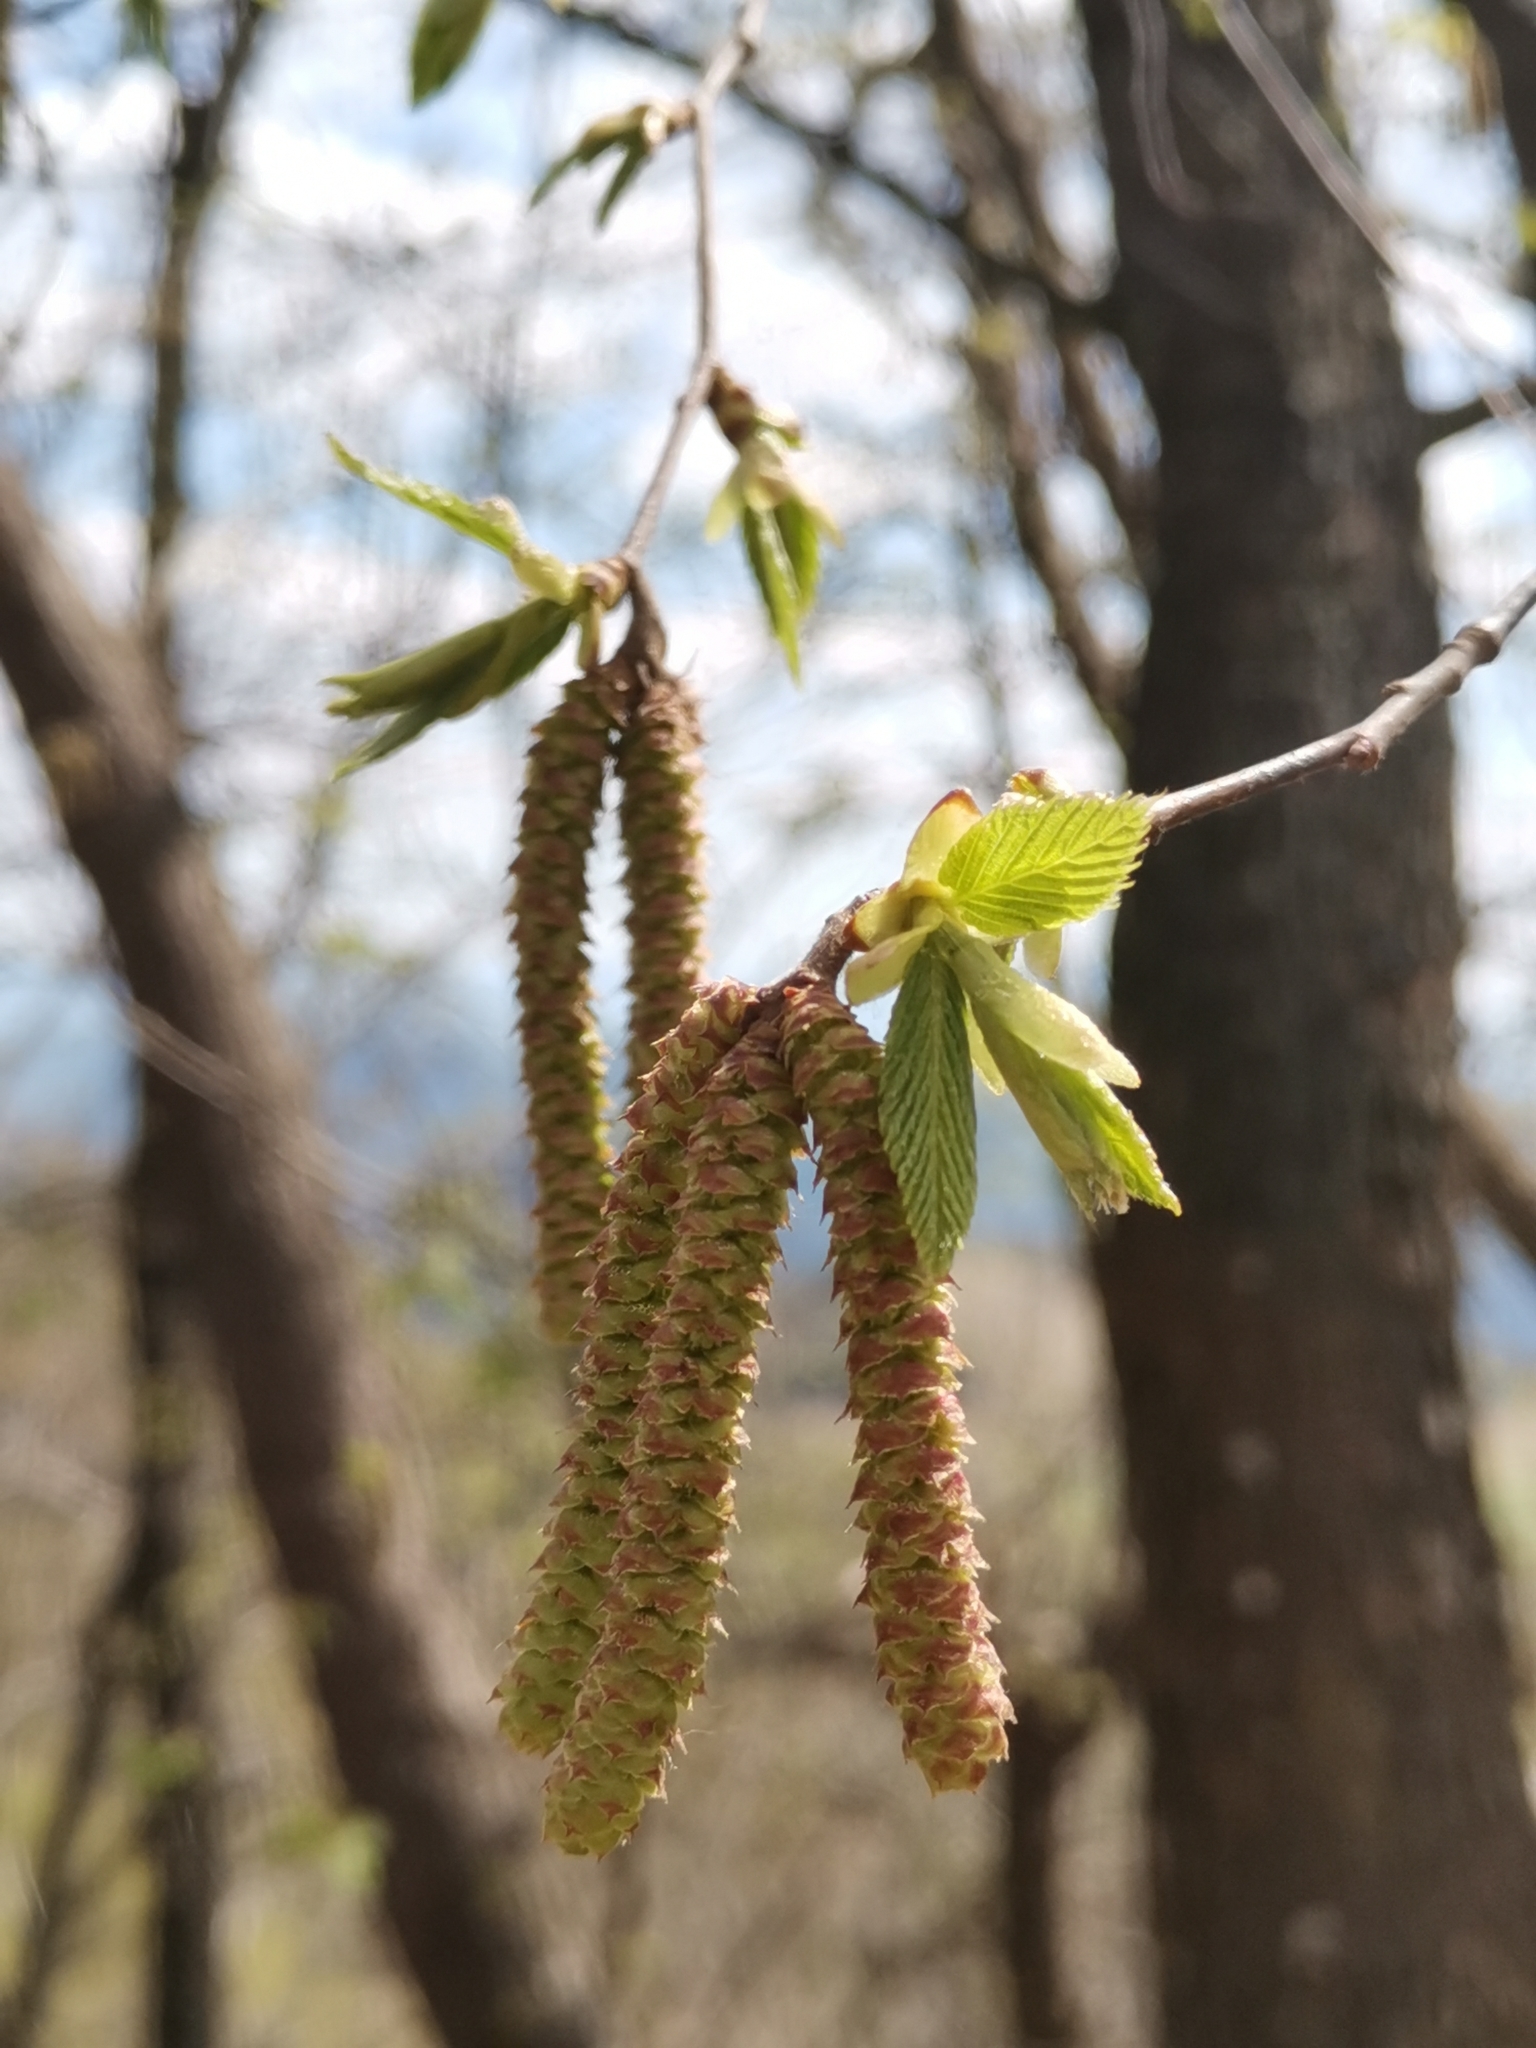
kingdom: Plantae
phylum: Tracheophyta
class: Magnoliopsida
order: Fagales
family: Betulaceae
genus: Ostrya
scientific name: Ostrya carpinifolia
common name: European hop-hornbeam
